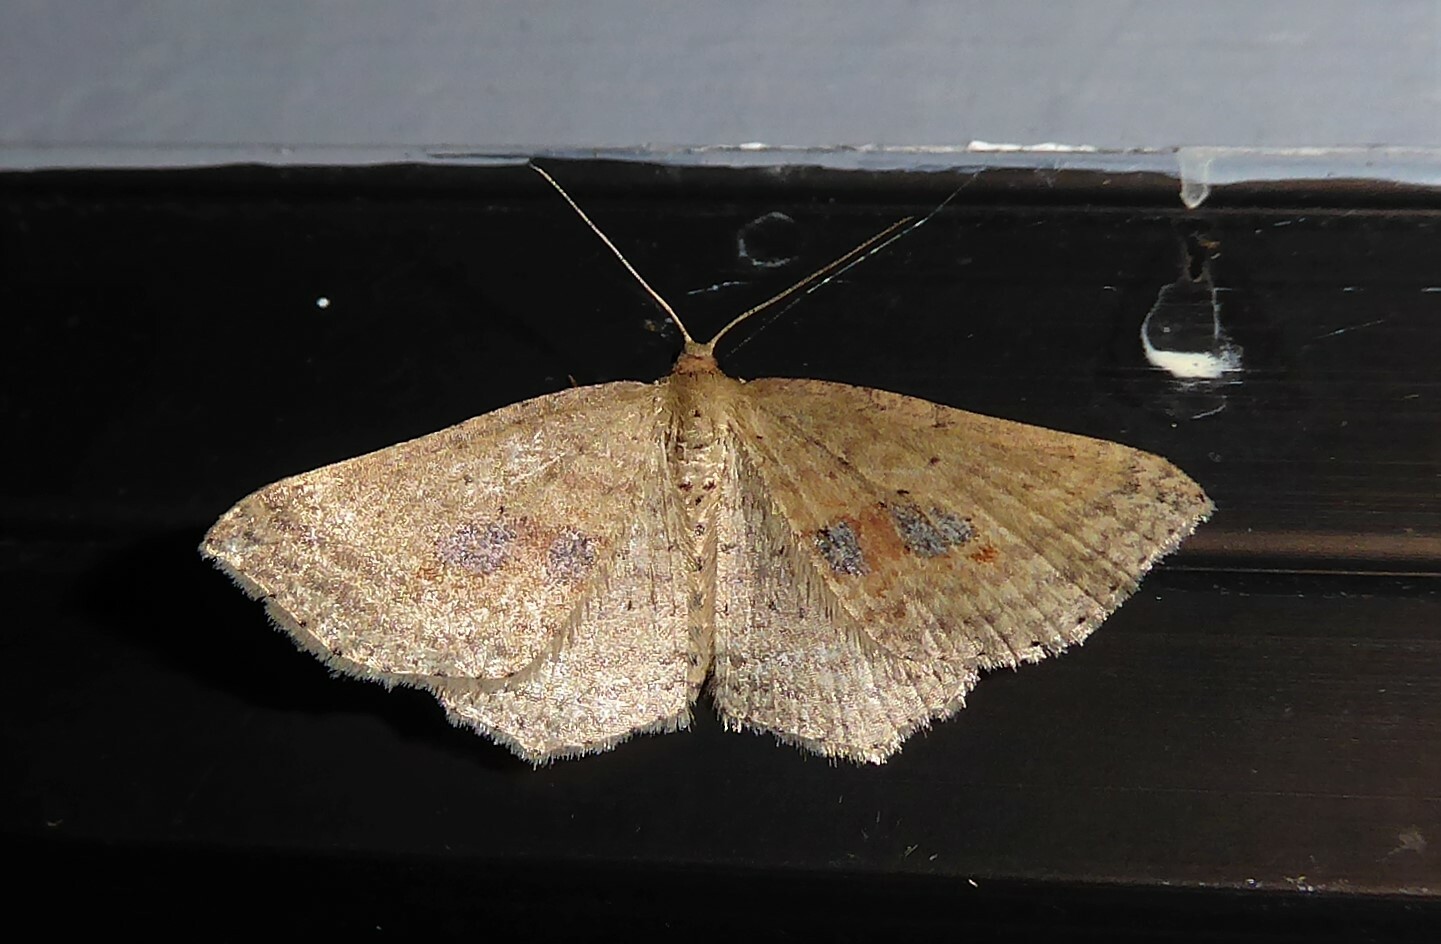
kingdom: Animalia
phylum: Arthropoda
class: Insecta
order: Lepidoptera
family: Geometridae
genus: Epicyme
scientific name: Epicyme rubropunctaria
